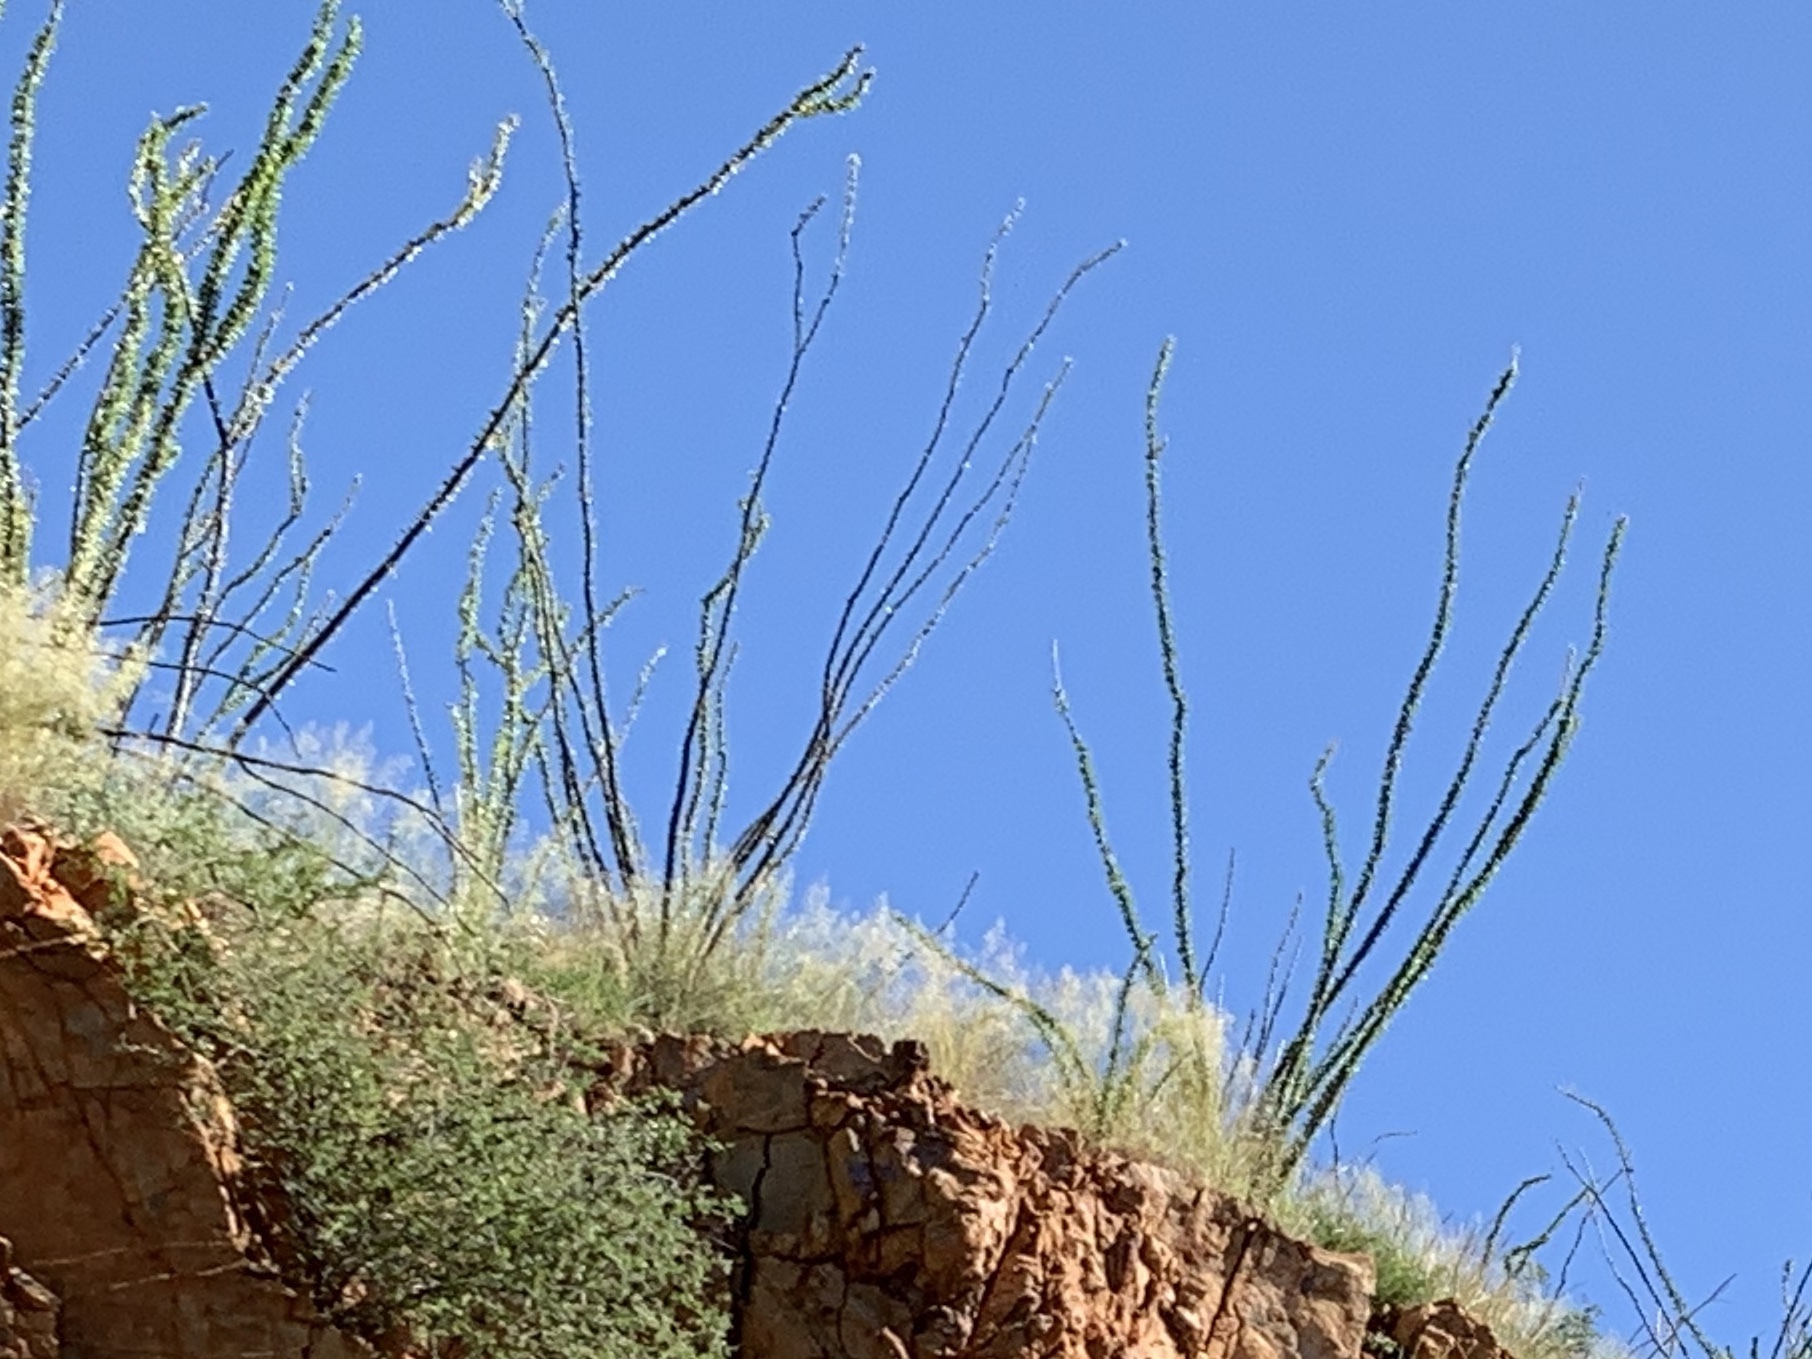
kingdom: Plantae
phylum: Tracheophyta
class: Magnoliopsida
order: Ericales
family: Fouquieriaceae
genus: Fouquieria
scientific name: Fouquieria splendens
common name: Vine-cactus
